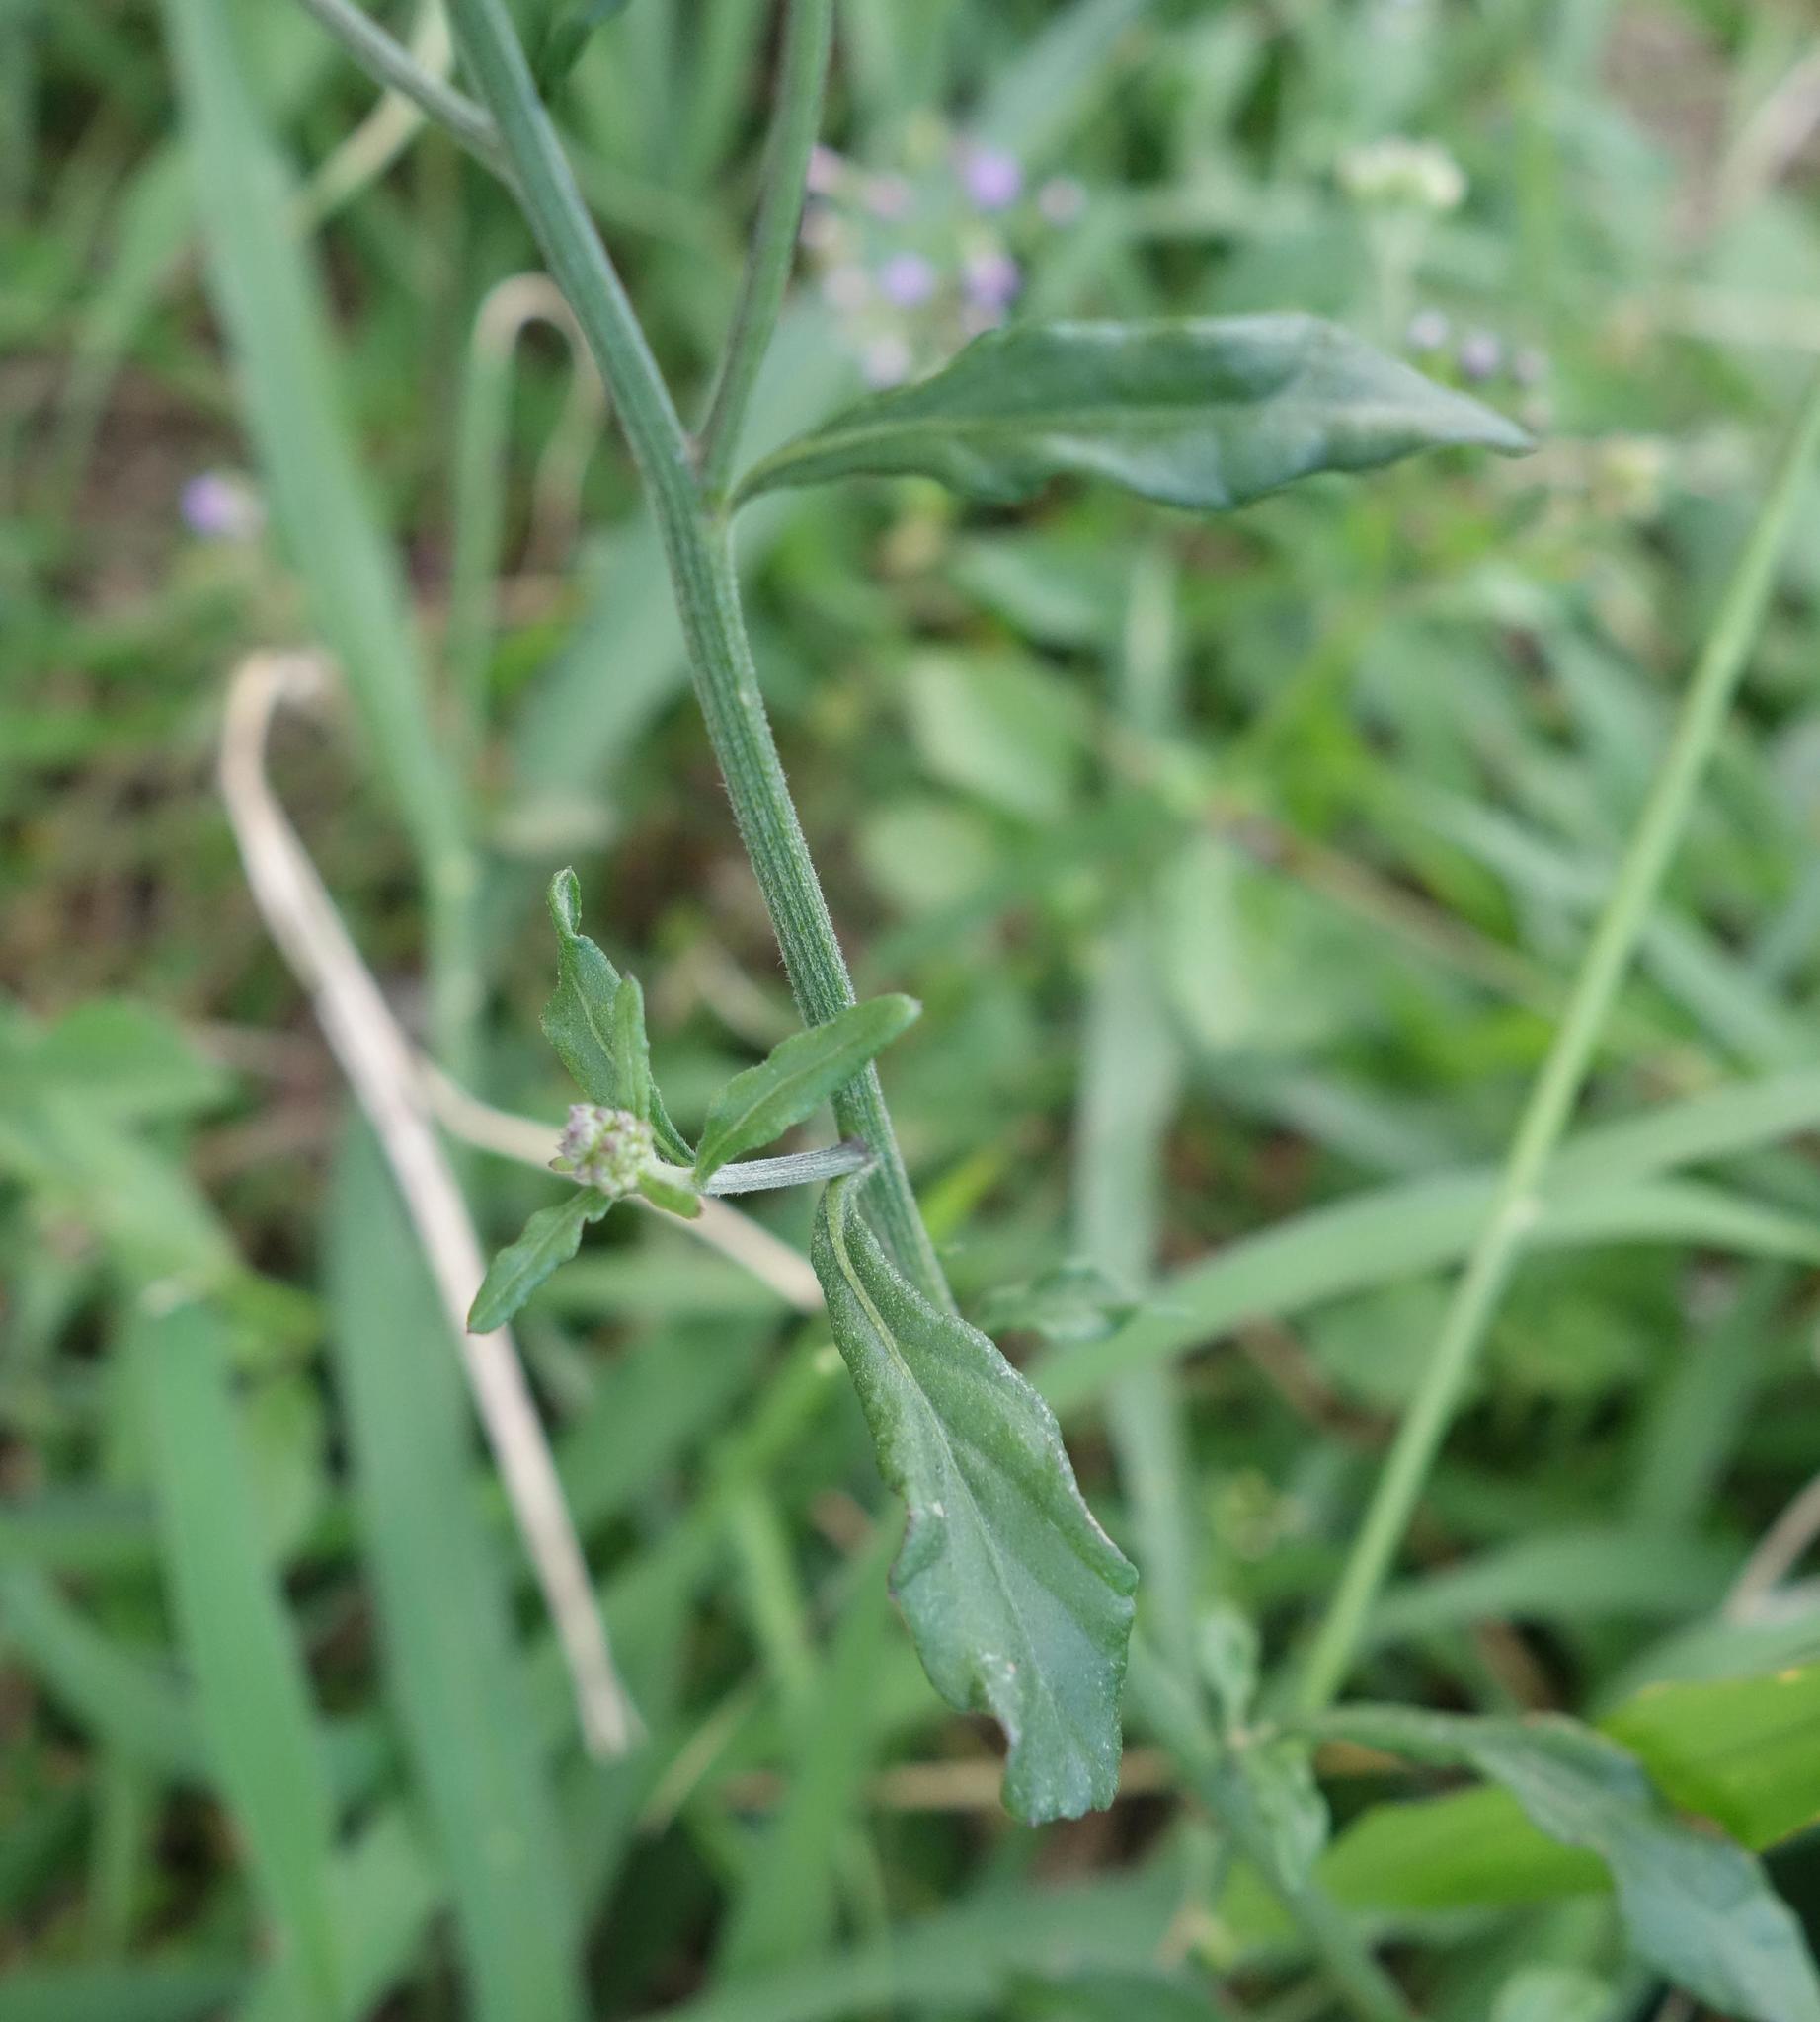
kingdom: Plantae
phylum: Tracheophyta
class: Magnoliopsida
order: Asterales
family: Asteraceae
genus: Cyanthillium
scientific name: Cyanthillium cinereum
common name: Little ironweed
